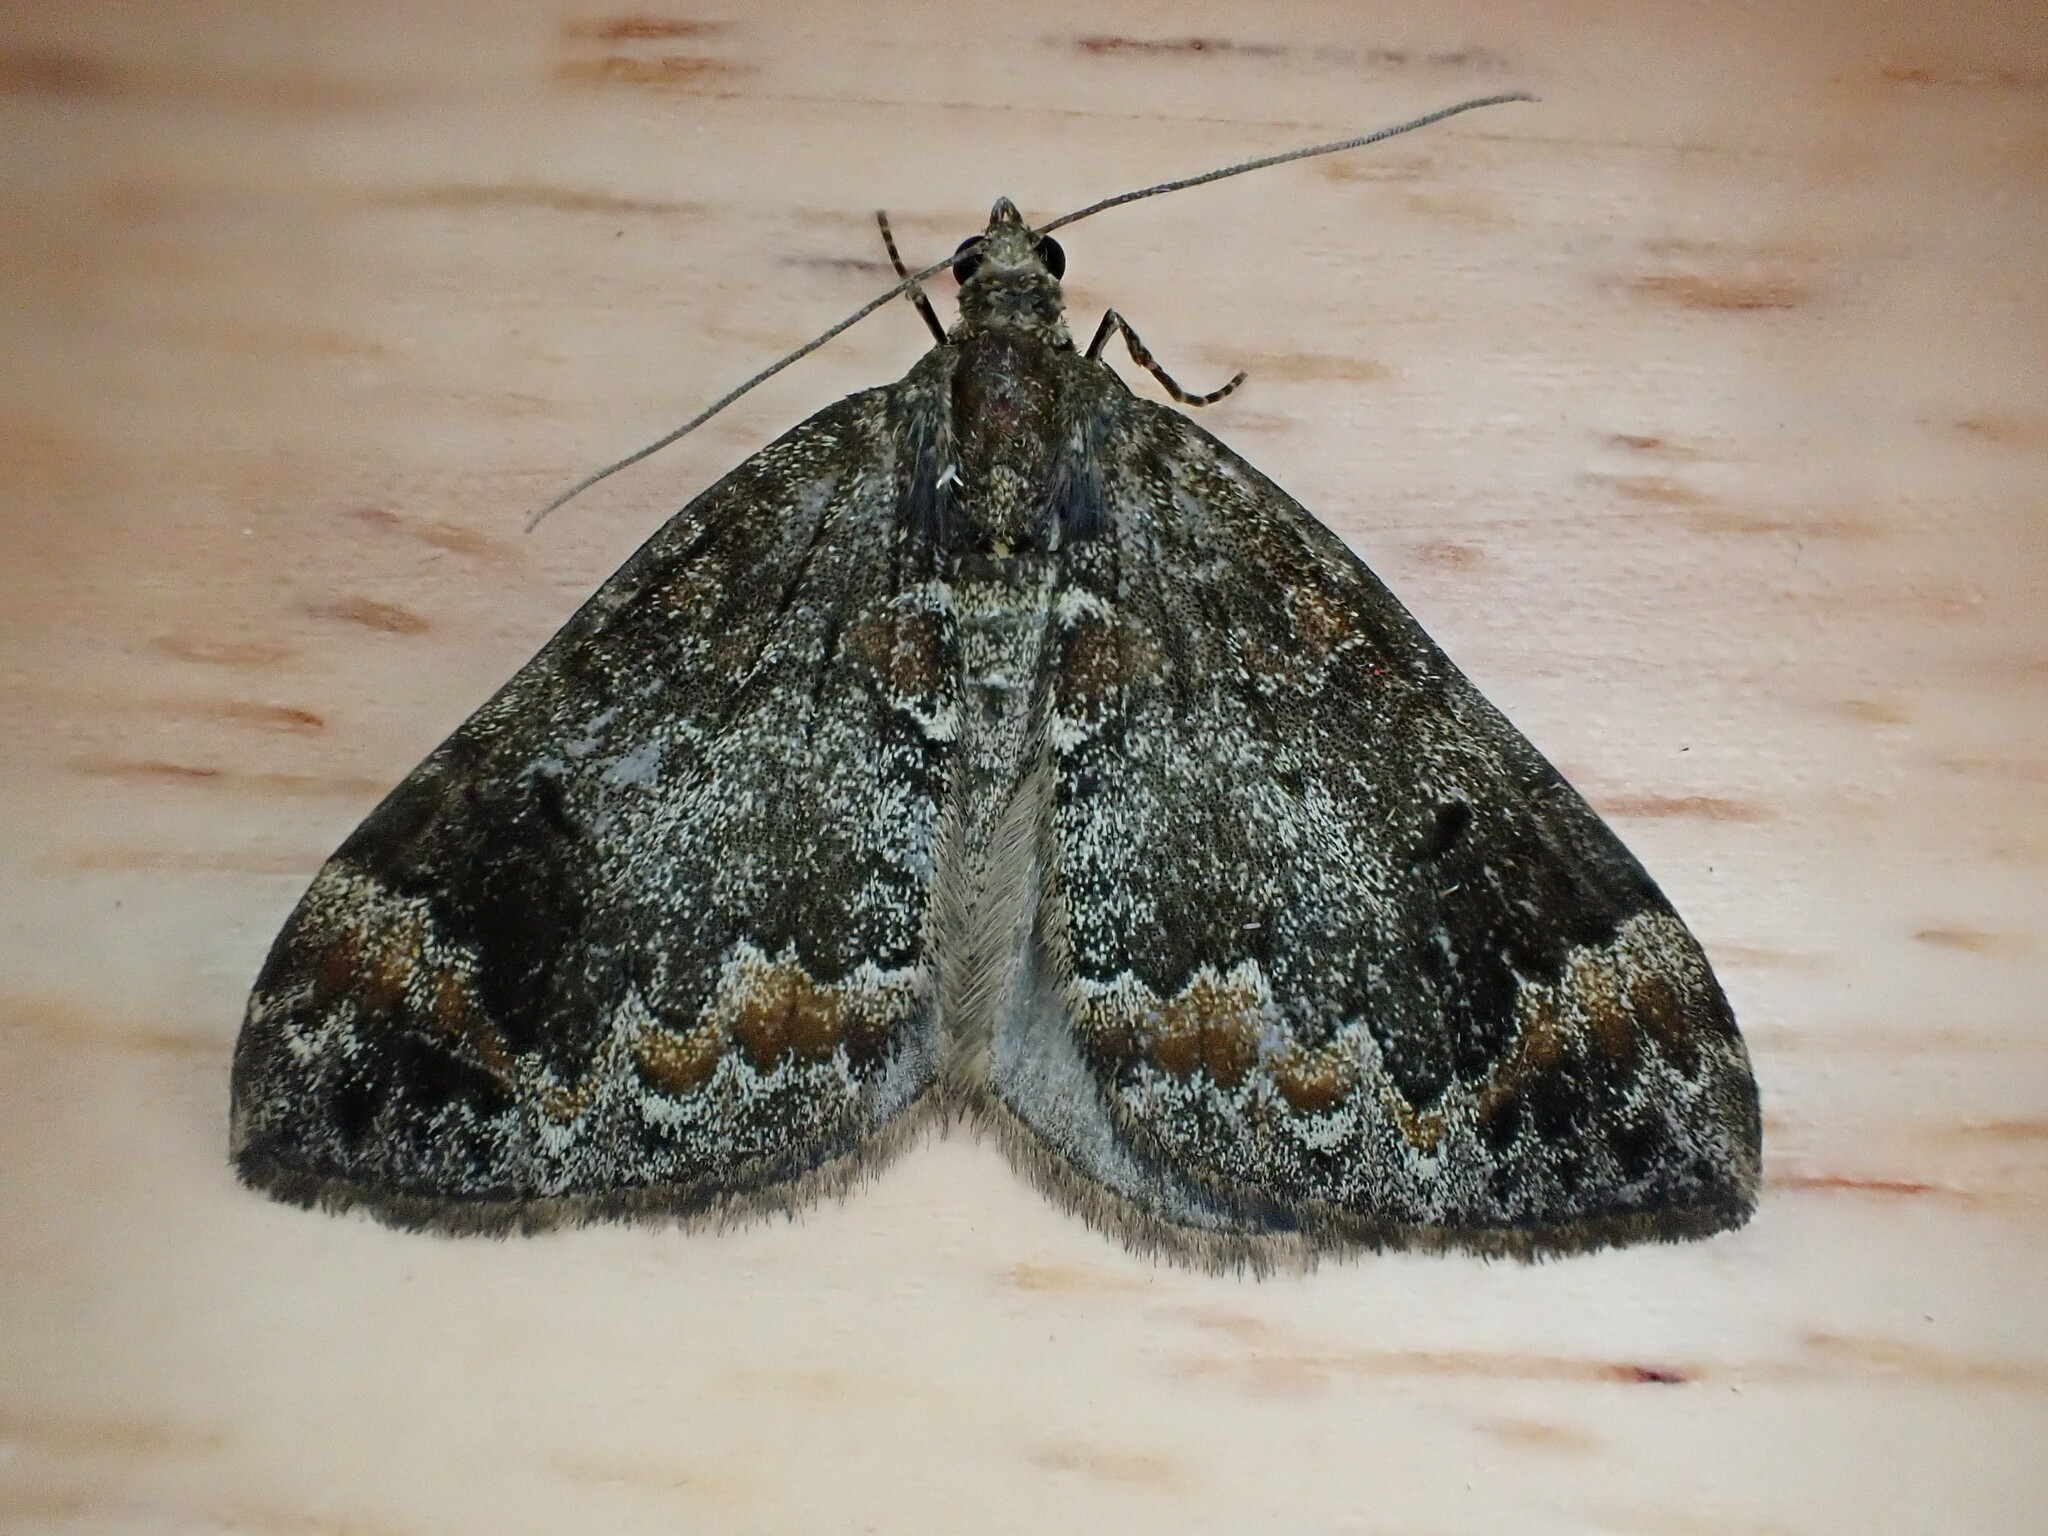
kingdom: Animalia
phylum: Arthropoda
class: Insecta
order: Lepidoptera
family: Geometridae
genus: Dysstroma
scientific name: Dysstroma truncata
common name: Common marbled carpet
